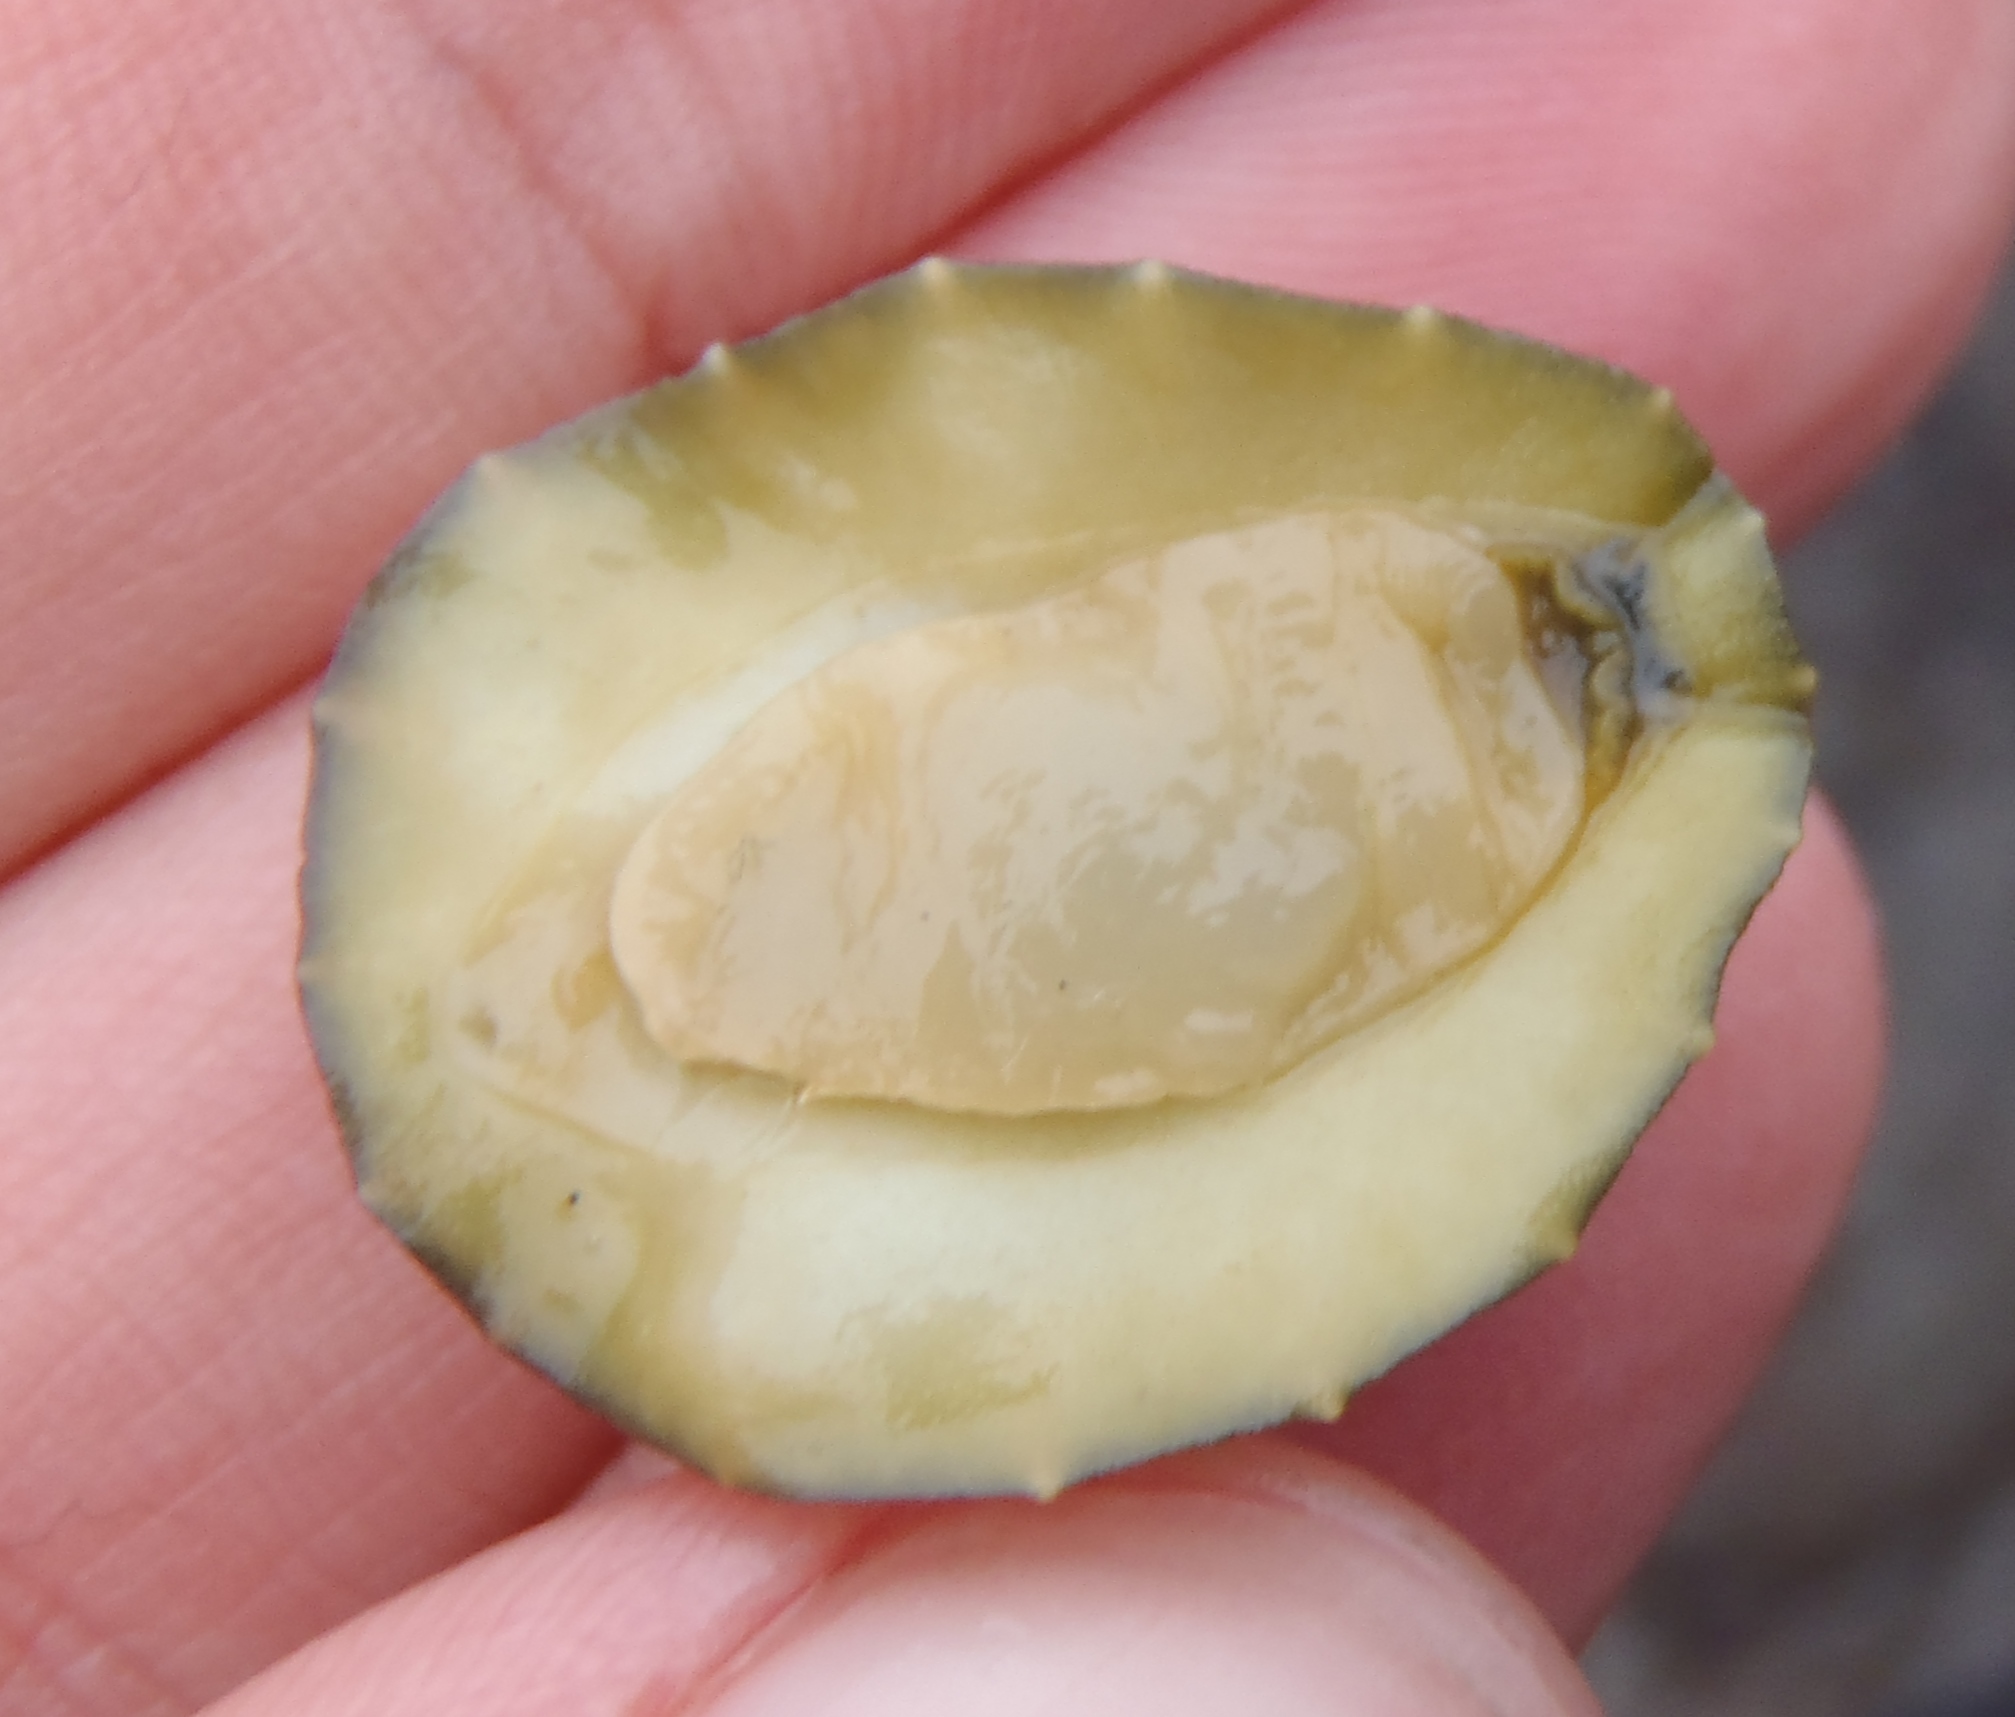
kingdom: Animalia
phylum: Mollusca
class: Gastropoda
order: Systellommatophora
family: Onchidiidae
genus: Onchidella
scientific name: Onchidella nigricans
